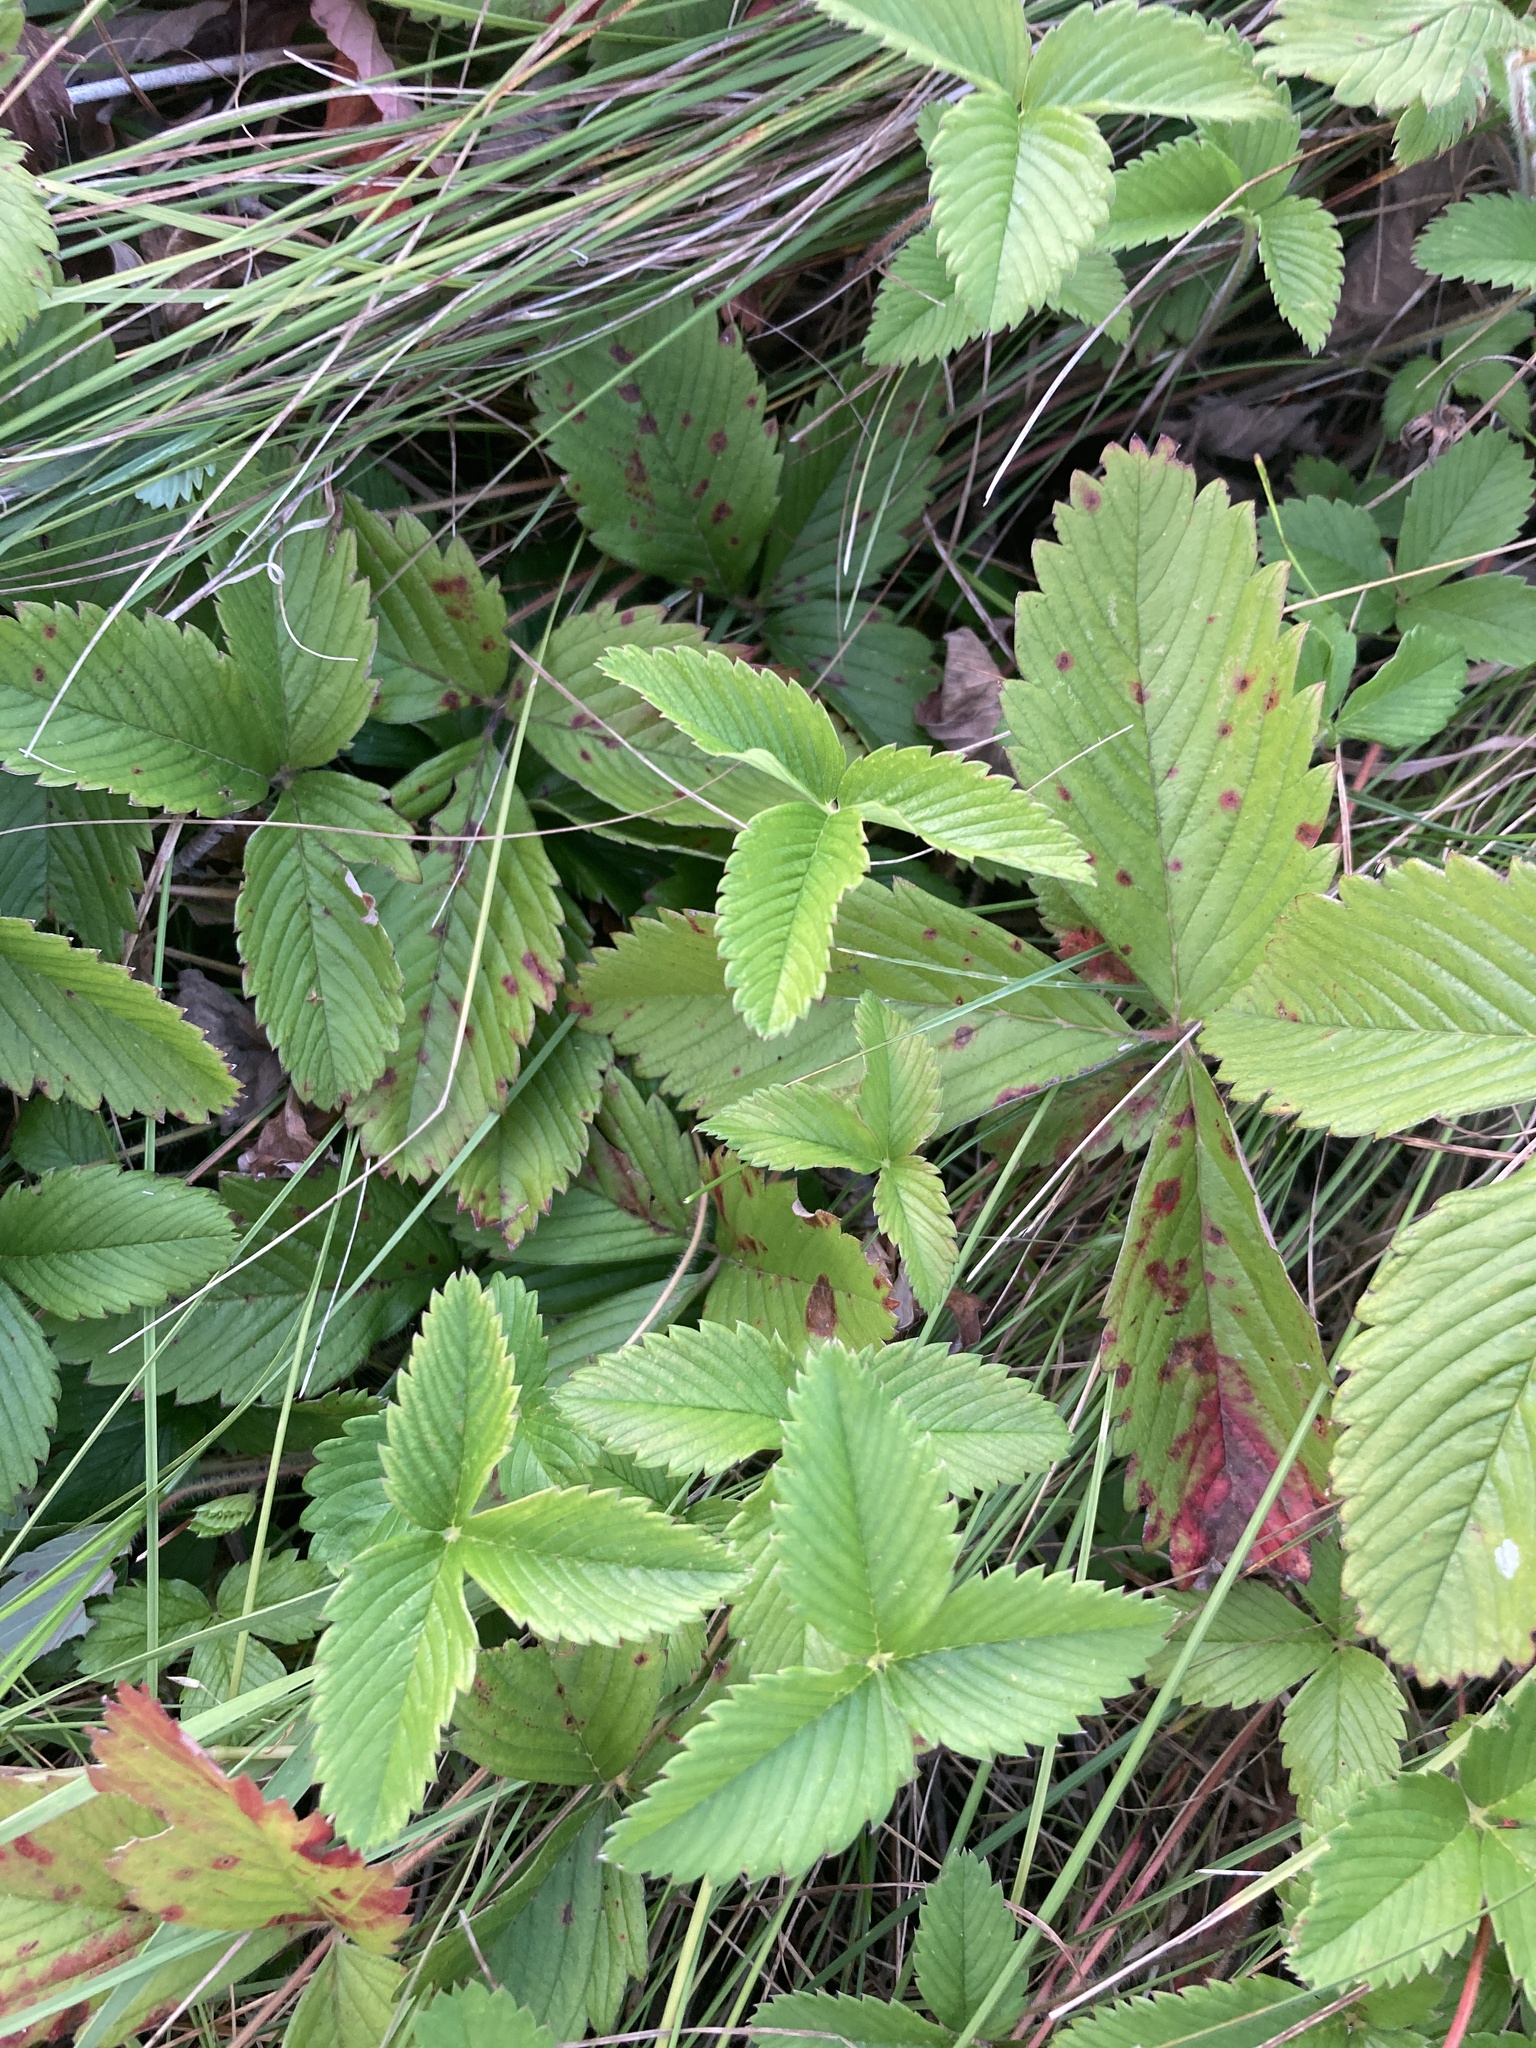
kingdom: Plantae
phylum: Tracheophyta
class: Magnoliopsida
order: Rosales
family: Rosaceae
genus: Fragaria
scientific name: Fragaria viridis
